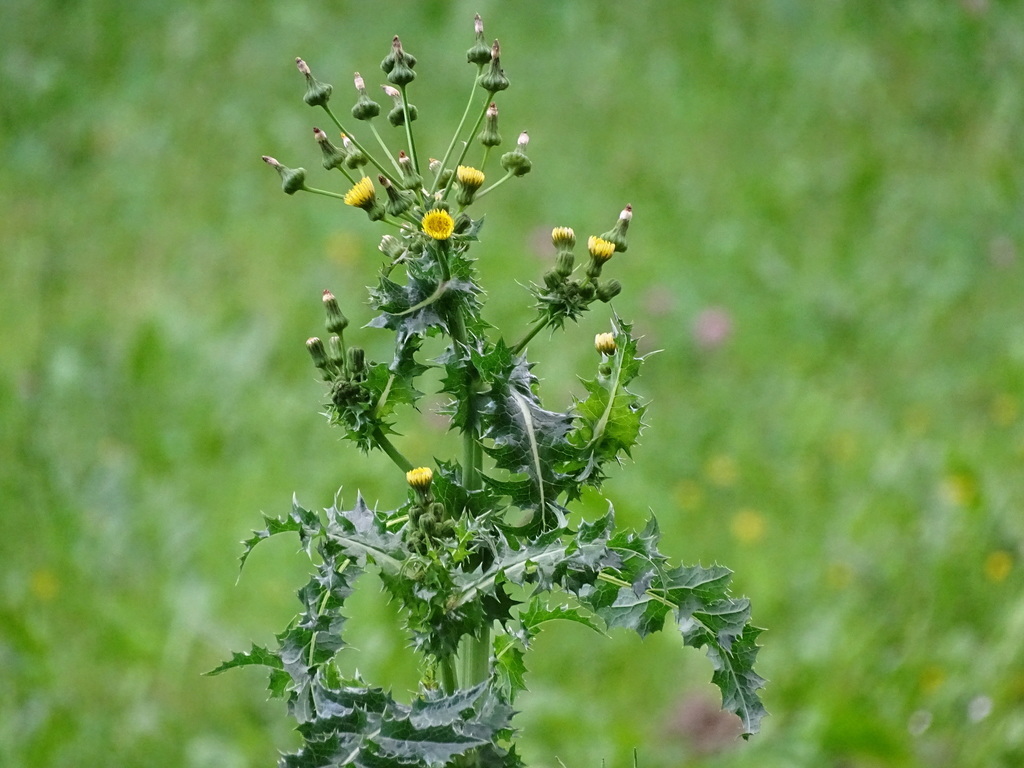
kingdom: Plantae
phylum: Tracheophyta
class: Magnoliopsida
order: Asterales
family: Asteraceae
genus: Sonchus
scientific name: Sonchus asper
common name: Prickly sow-thistle
